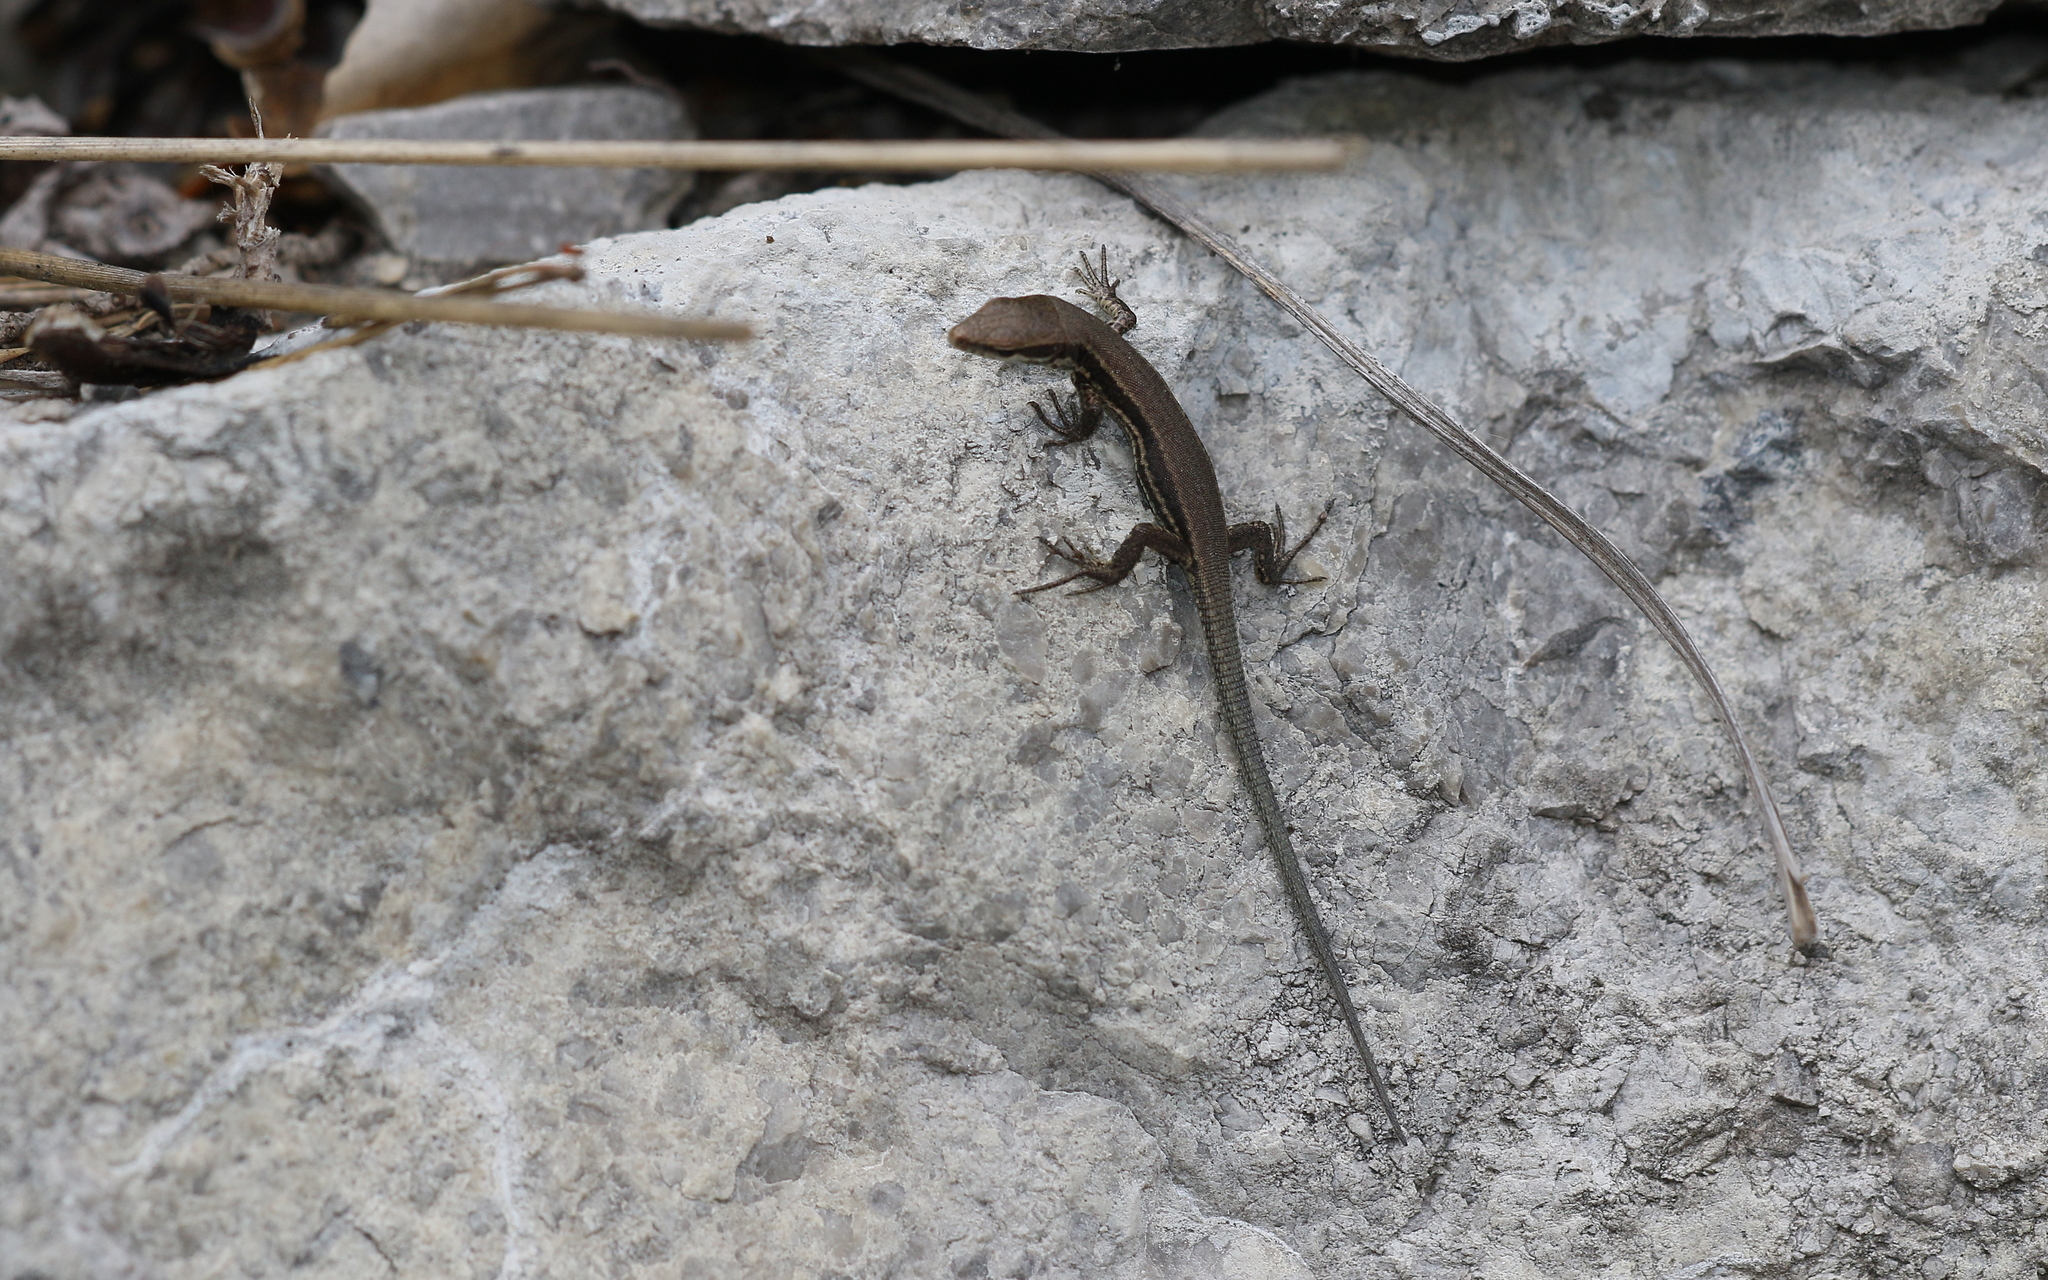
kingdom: Animalia
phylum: Chordata
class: Squamata
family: Lacertidae
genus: Podarcis
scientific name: Podarcis muralis
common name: Common wall lizard
